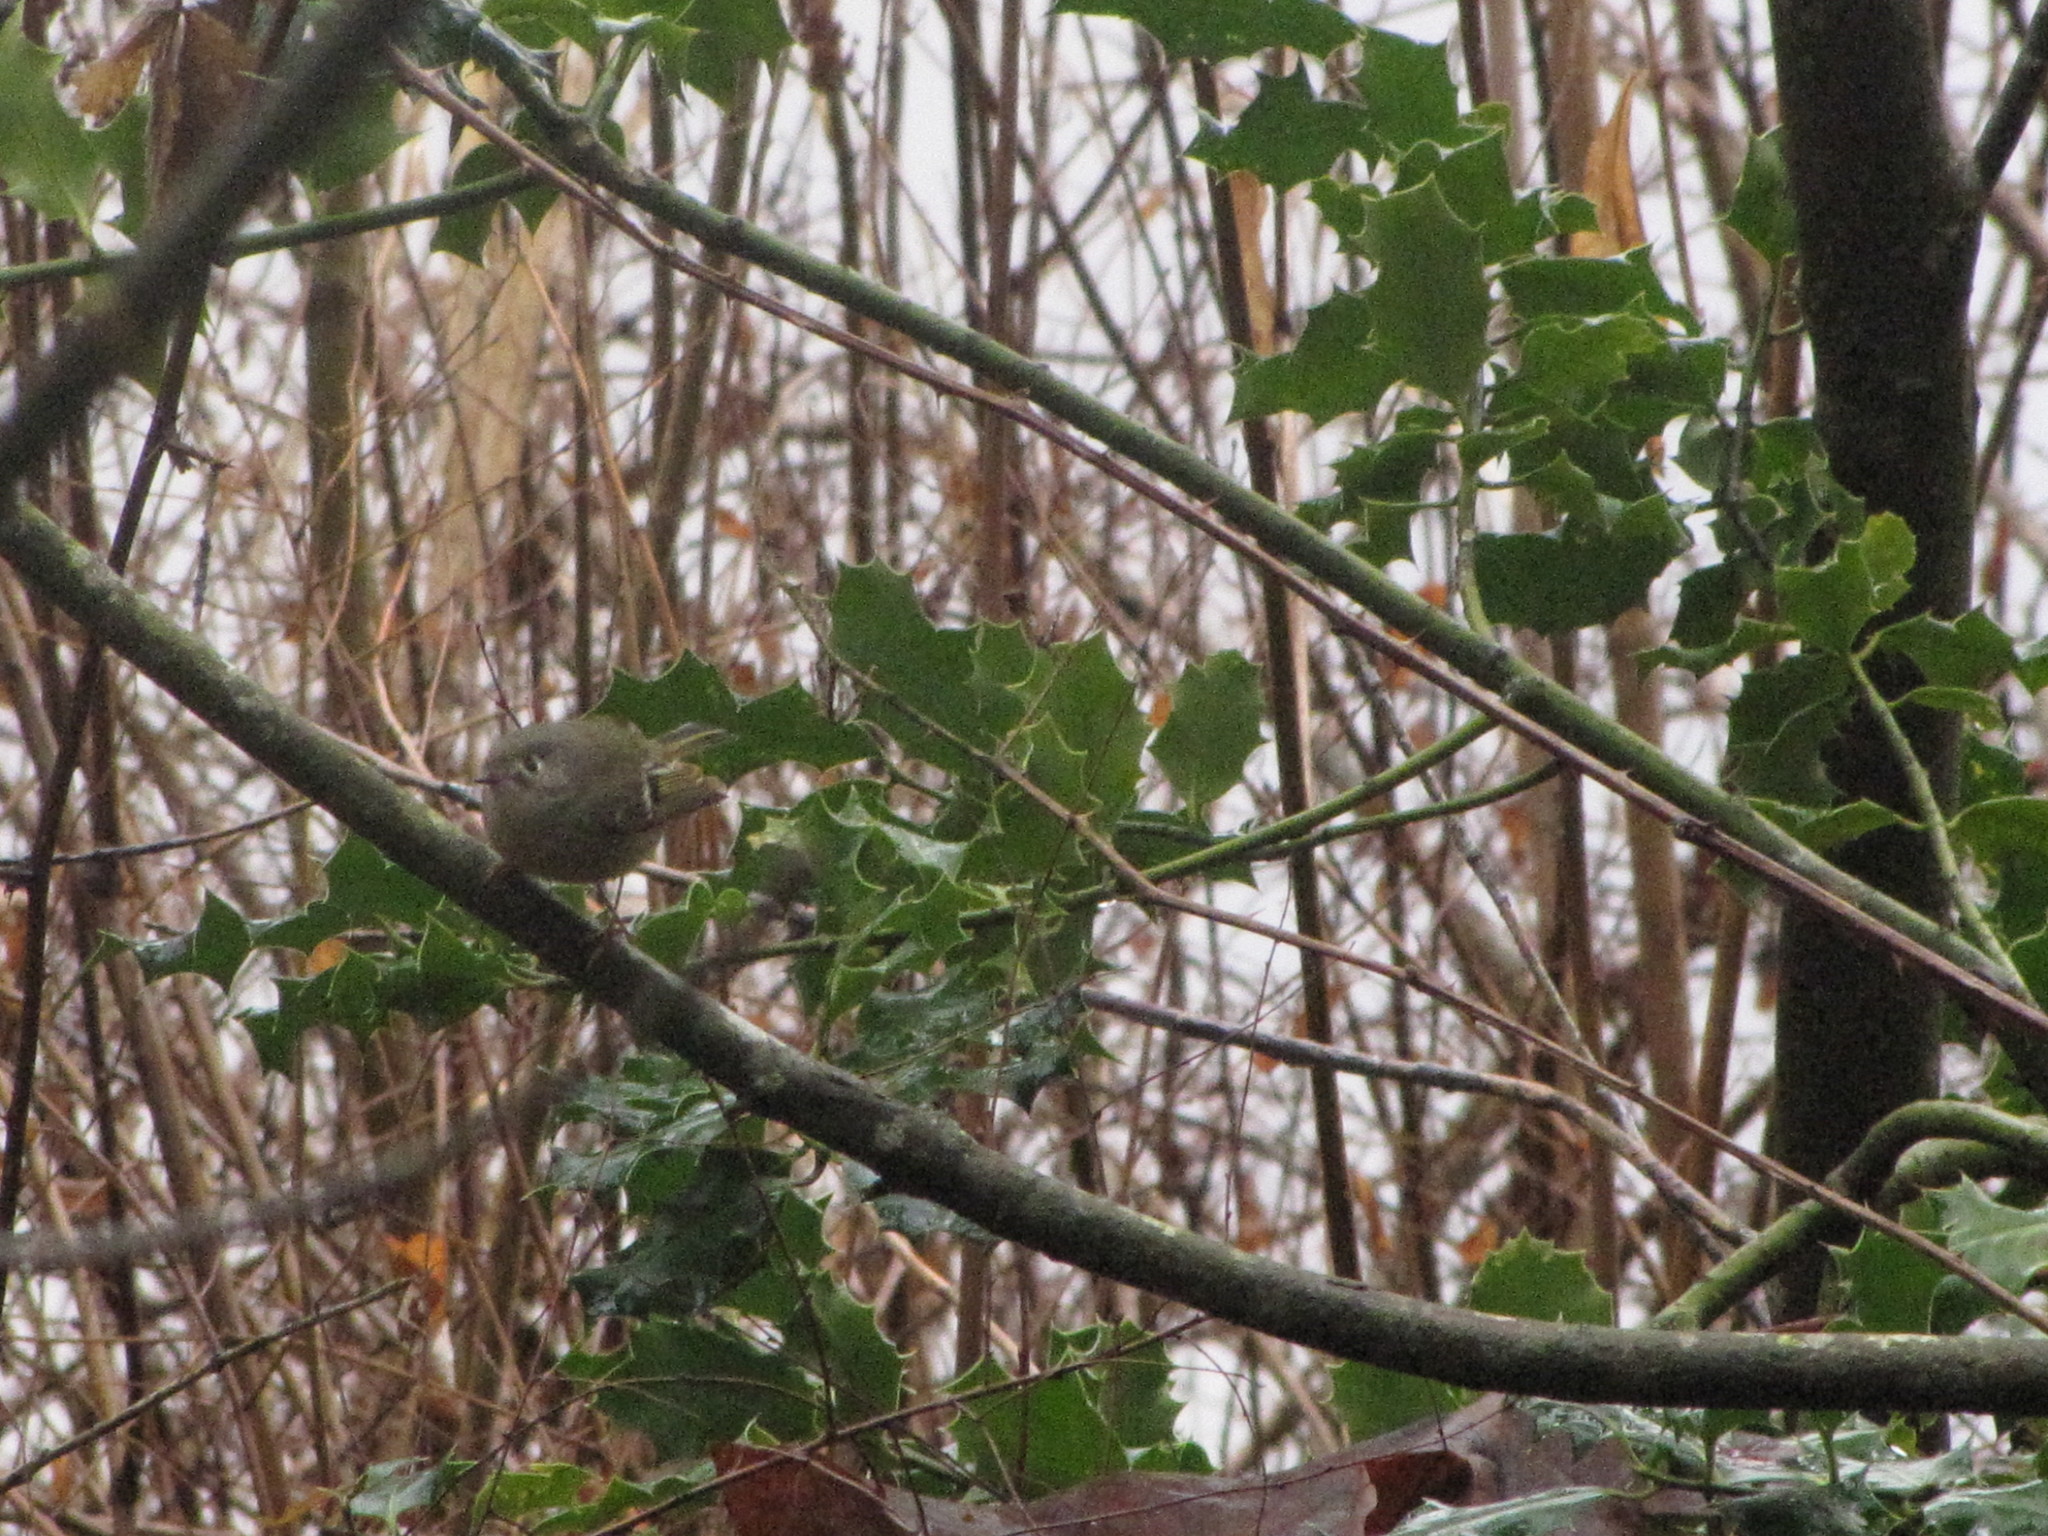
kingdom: Animalia
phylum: Chordata
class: Aves
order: Passeriformes
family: Regulidae
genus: Regulus
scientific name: Regulus calendula
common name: Ruby-crowned kinglet
